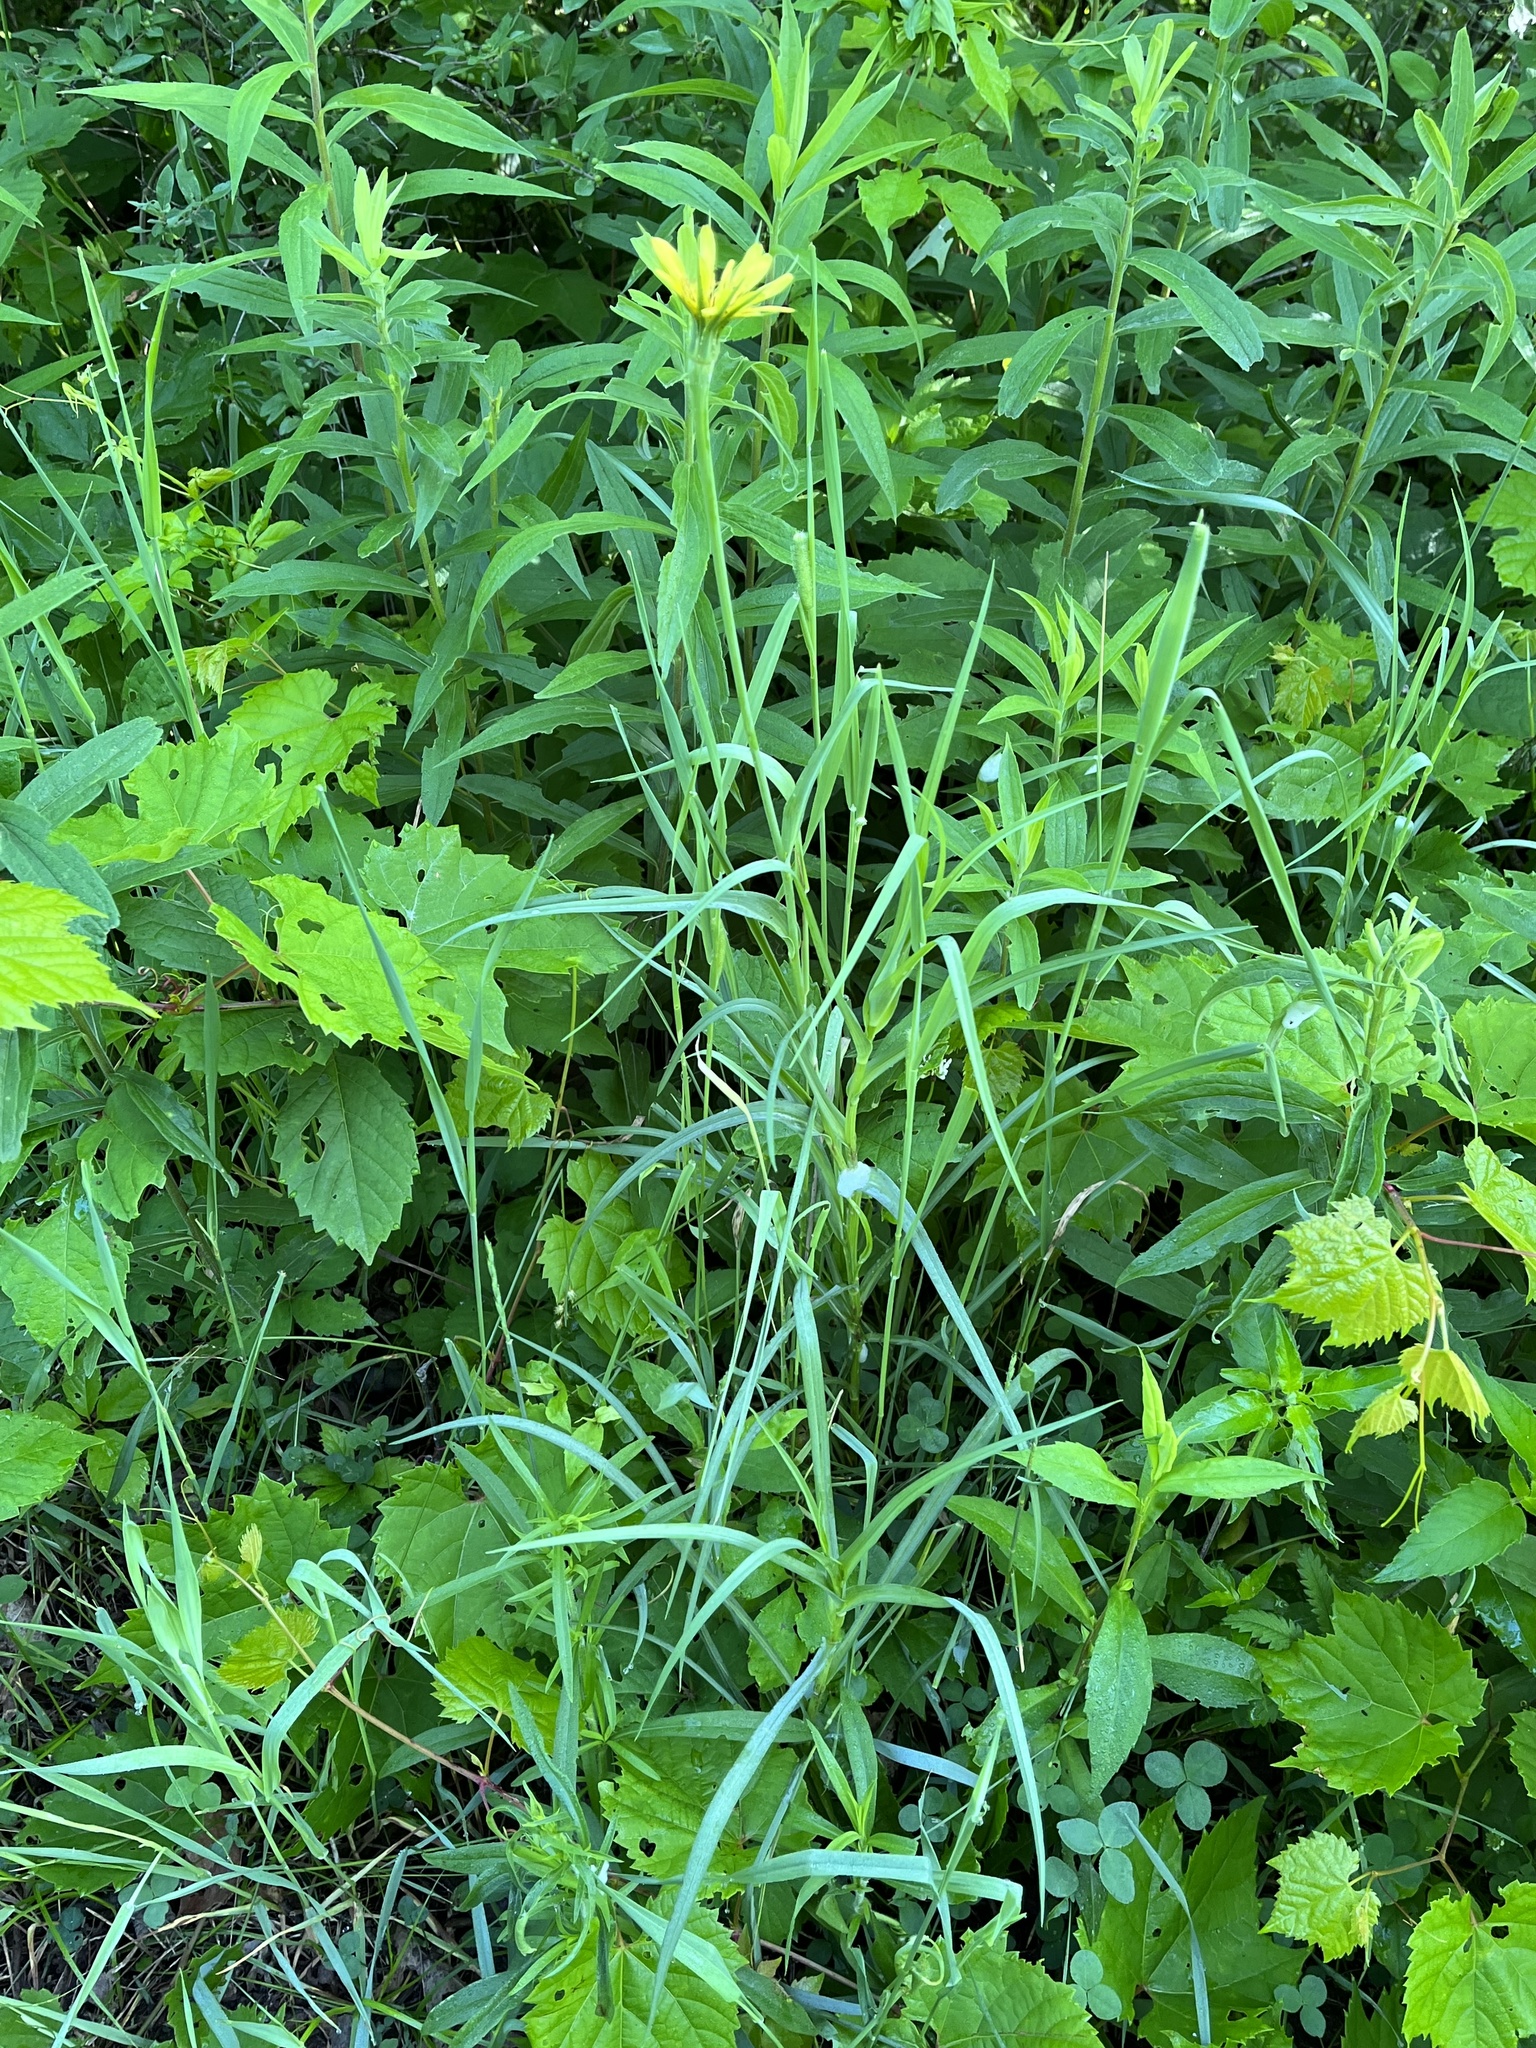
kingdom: Plantae
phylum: Tracheophyta
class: Magnoliopsida
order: Asterales
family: Asteraceae
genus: Tragopogon
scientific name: Tragopogon dubius
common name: Yellow salsify
